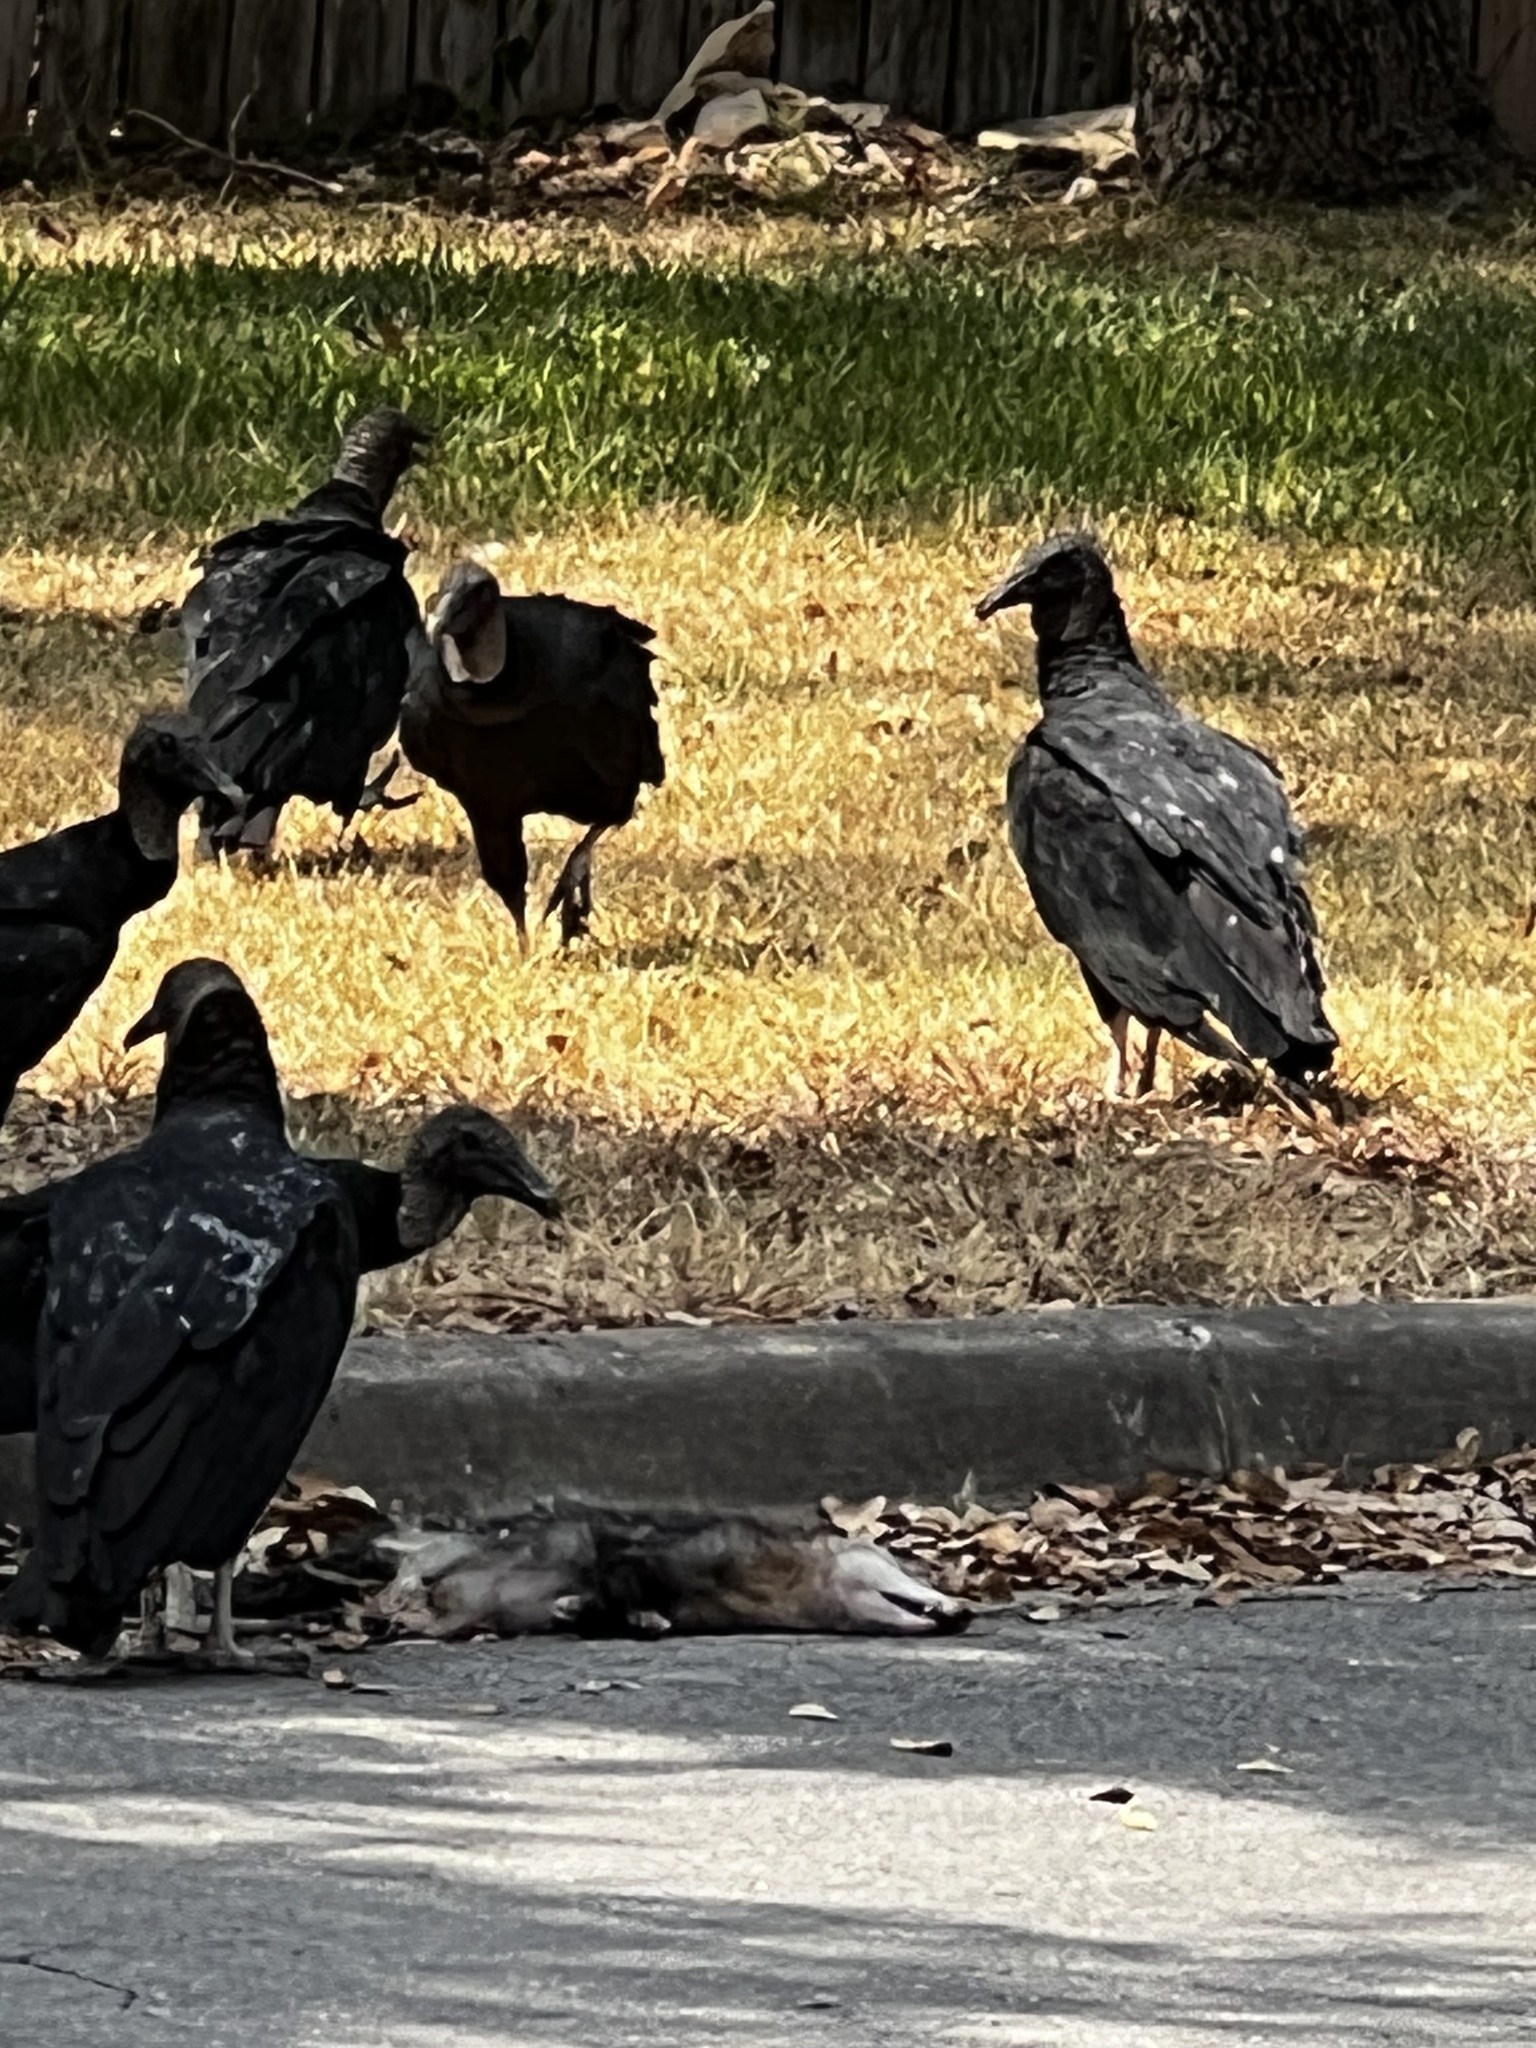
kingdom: Animalia
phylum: Chordata
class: Aves
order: Accipitriformes
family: Cathartidae
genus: Coragyps
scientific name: Coragyps atratus
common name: Black vulture
